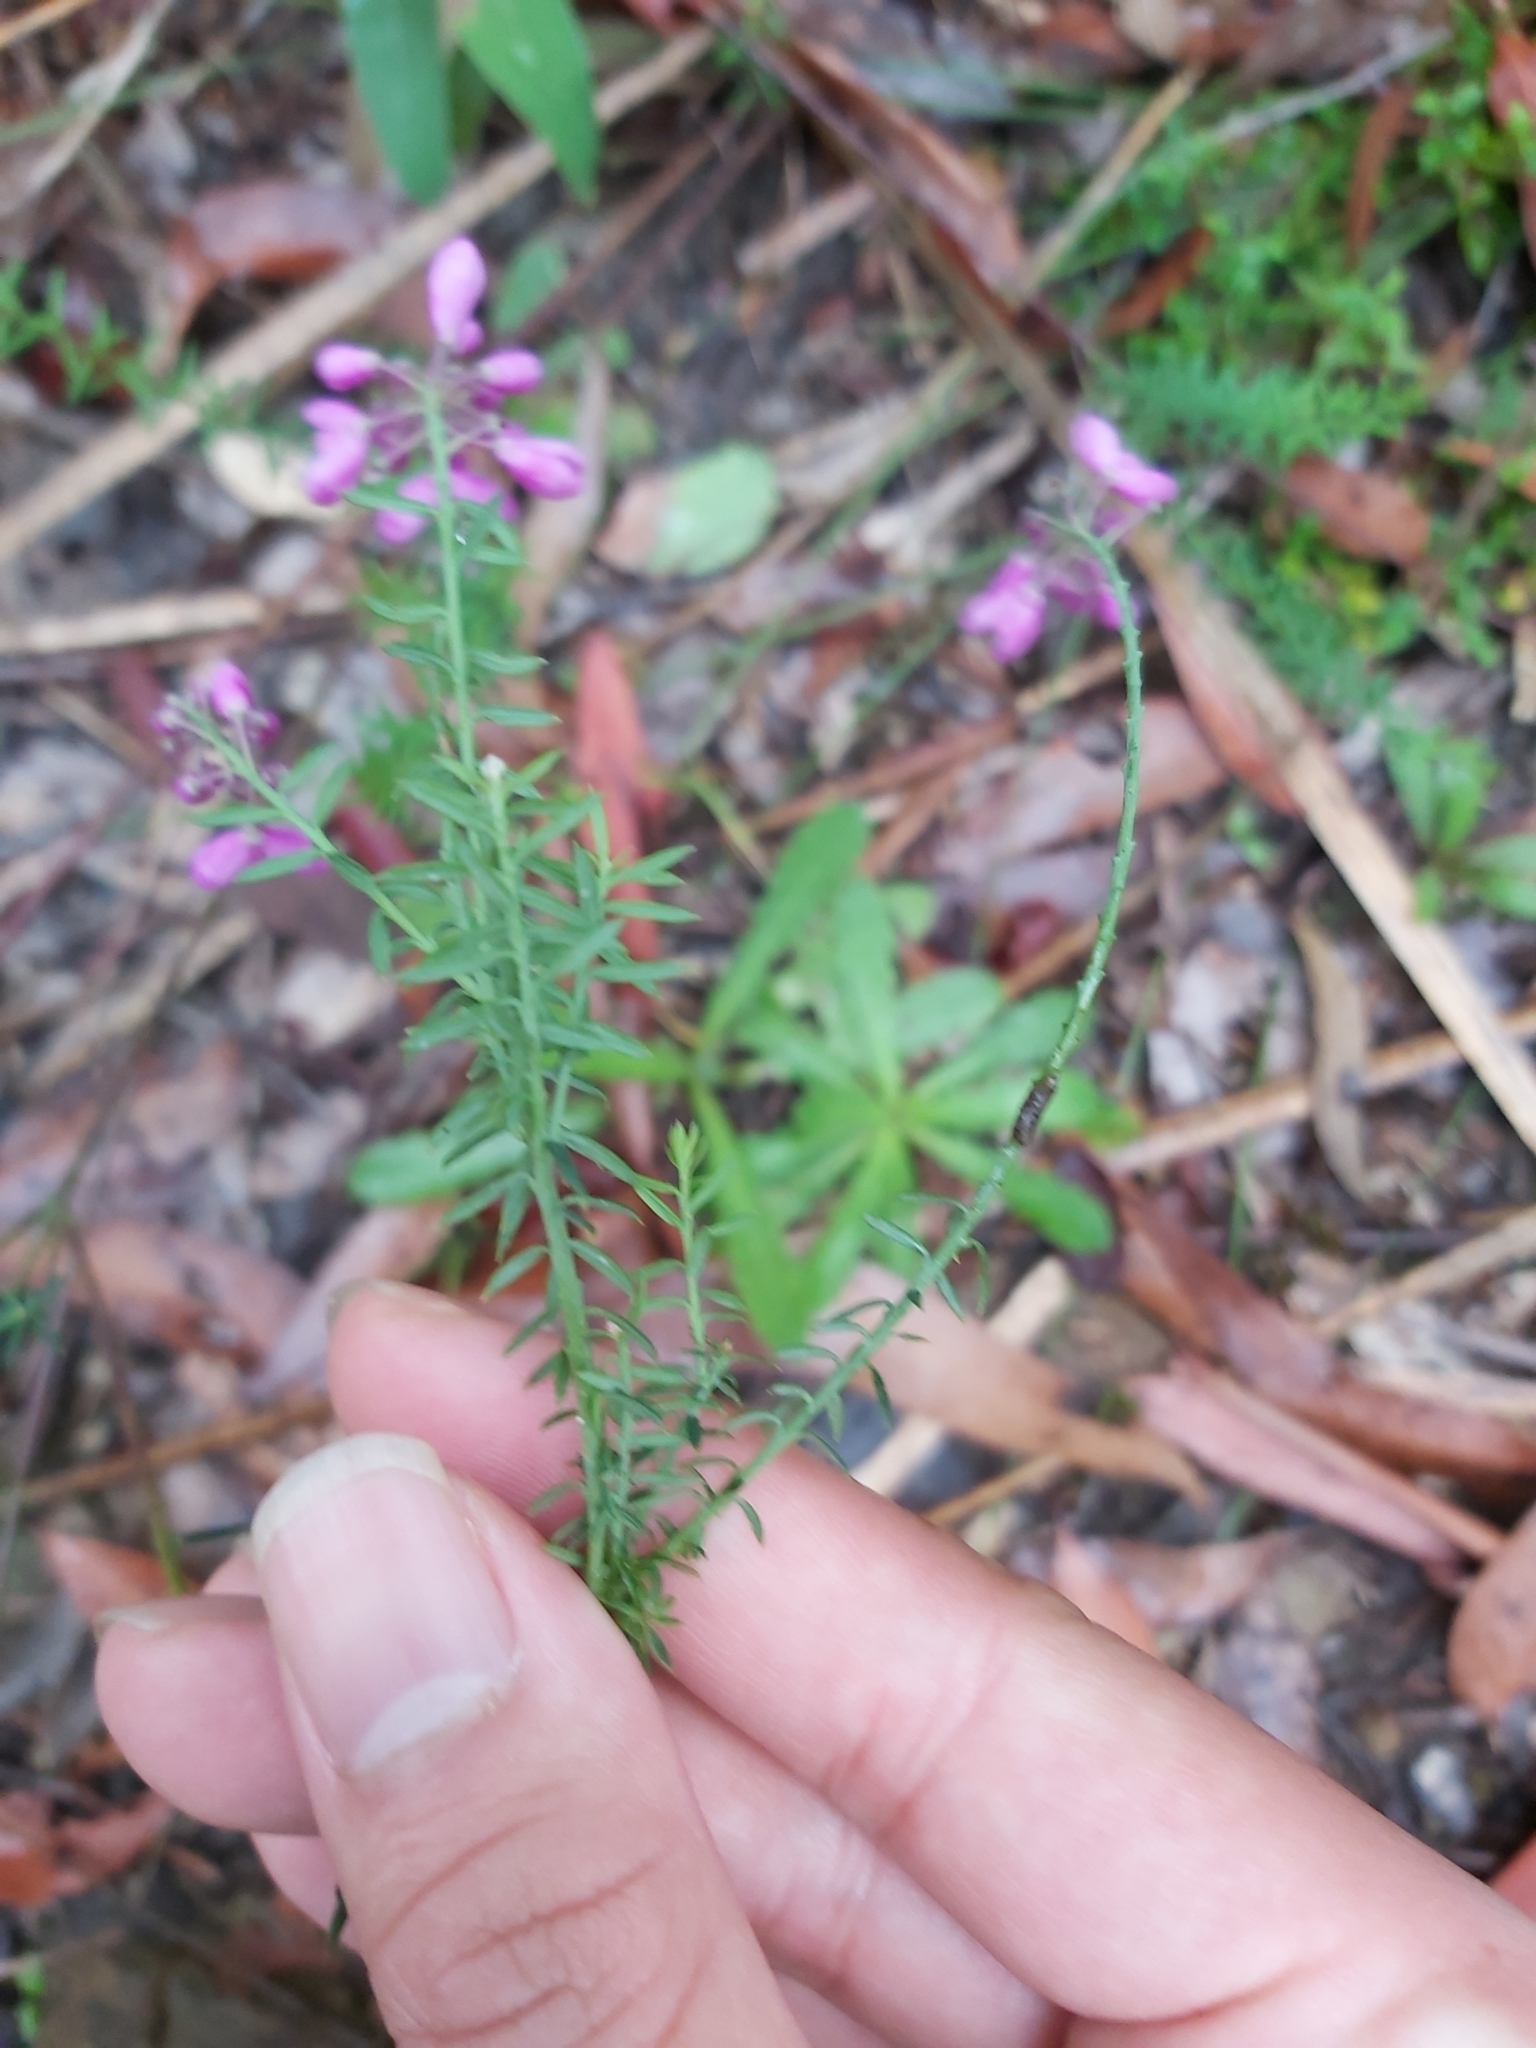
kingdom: Plantae
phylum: Tracheophyta
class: Magnoliopsida
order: Fabales
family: Polygalaceae
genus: Comesperma
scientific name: Comesperma ericinum
